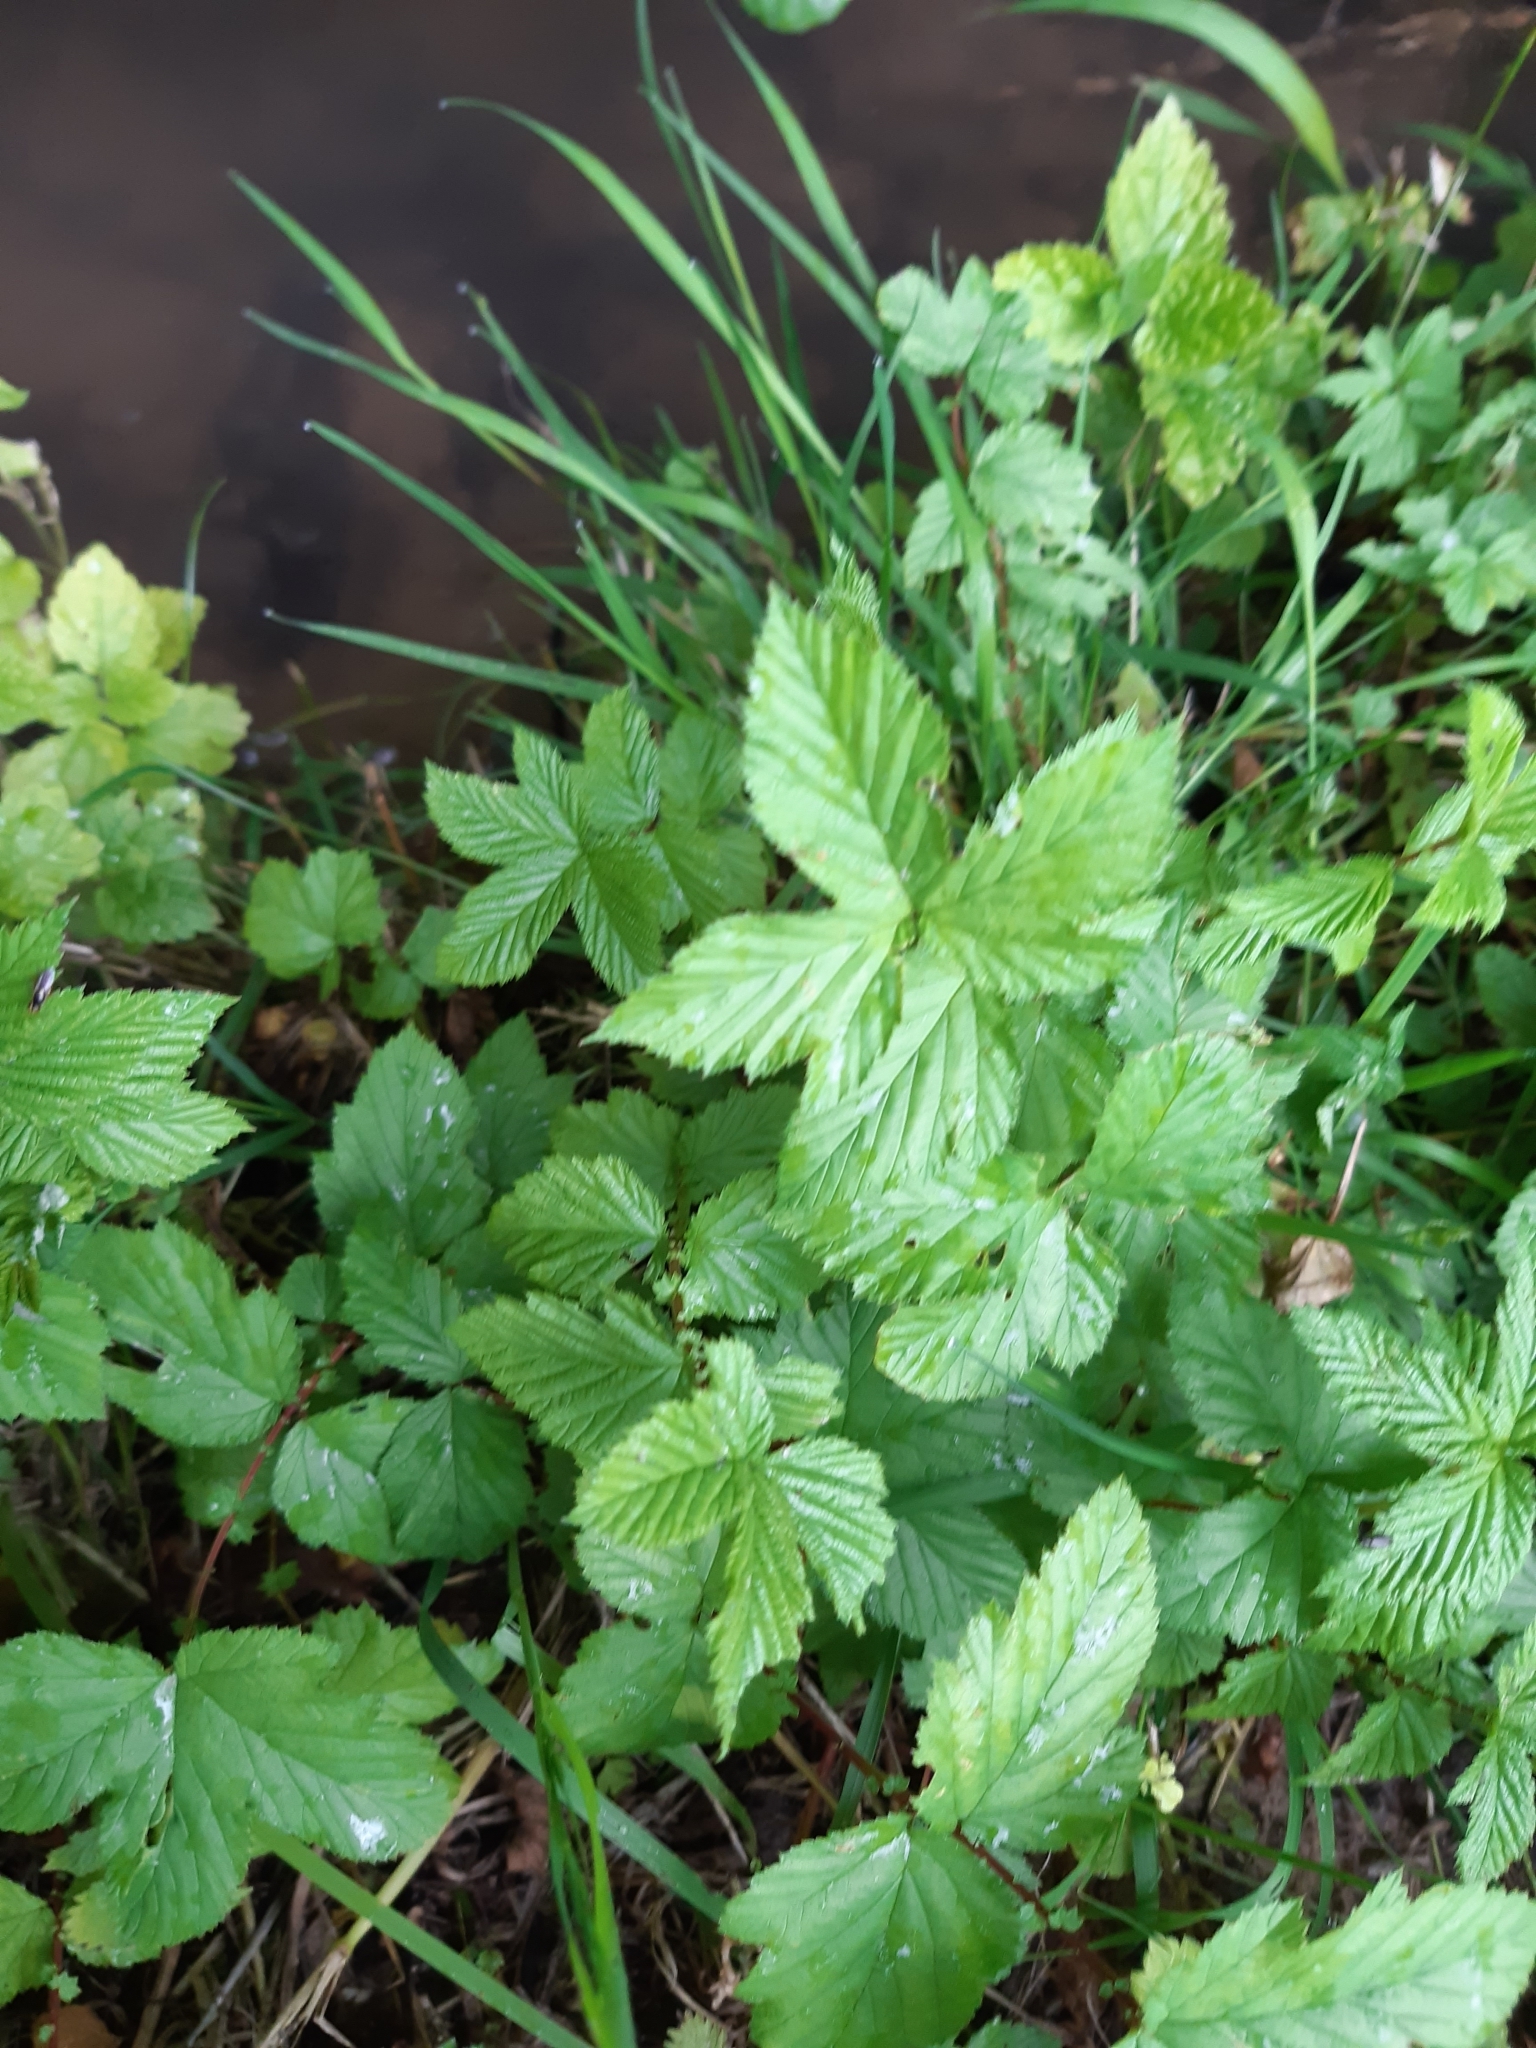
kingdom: Plantae
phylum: Tracheophyta
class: Magnoliopsida
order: Rosales
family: Rosaceae
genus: Filipendula
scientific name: Filipendula ulmaria
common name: Meadowsweet
